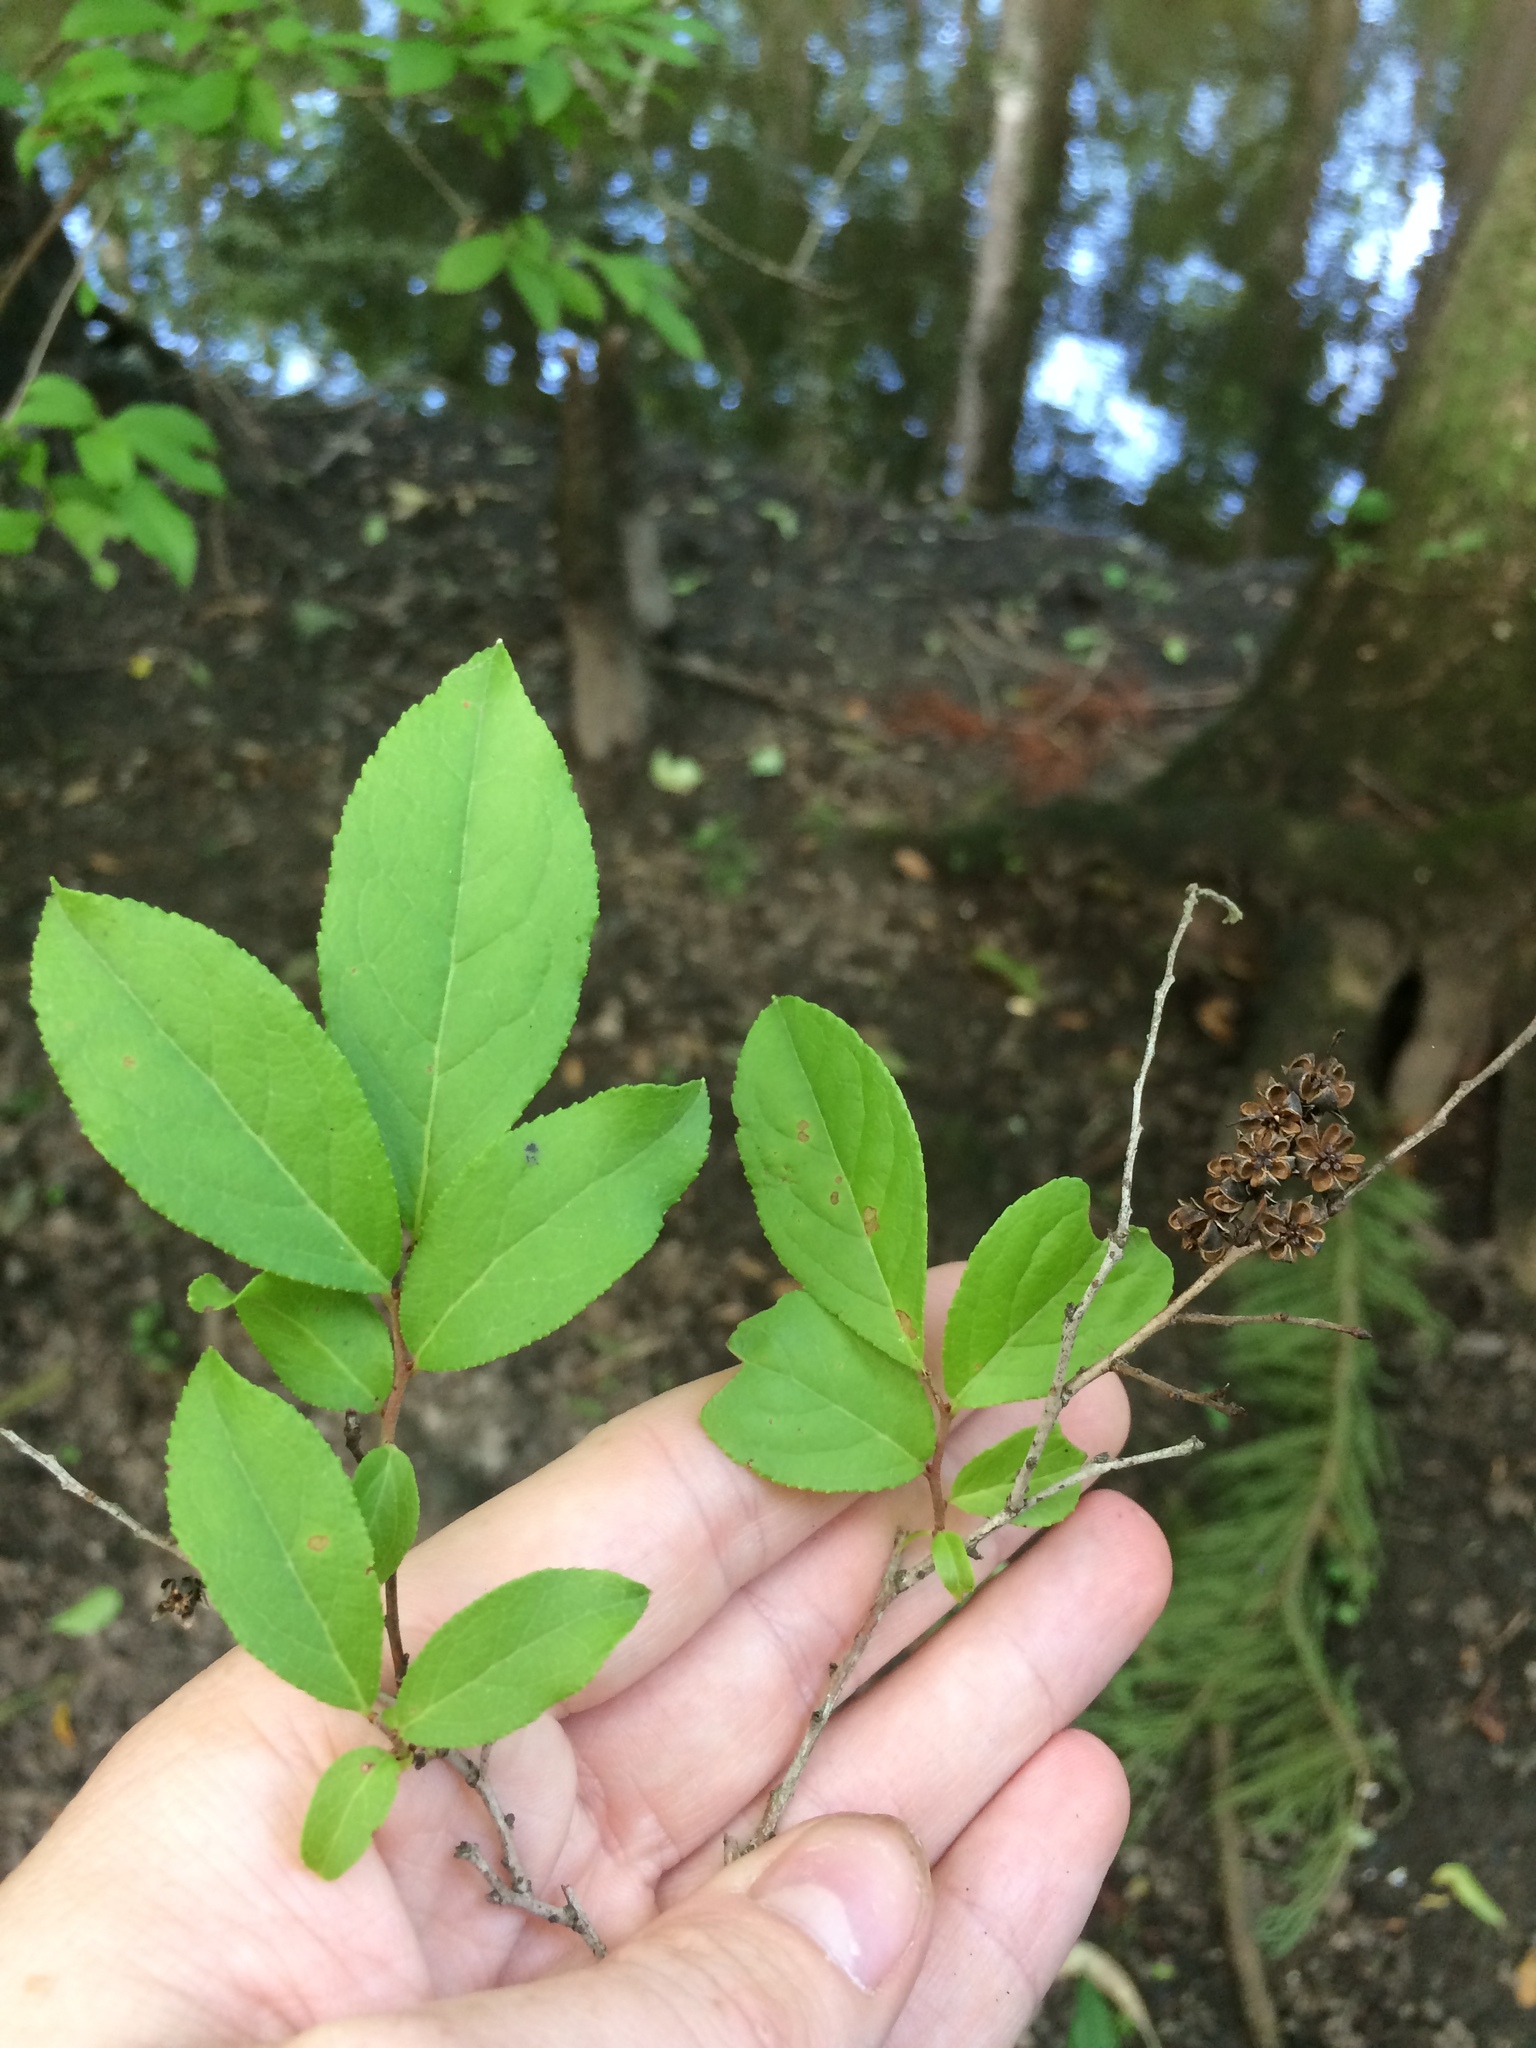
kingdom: Plantae
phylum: Tracheophyta
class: Magnoliopsida
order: Ericales
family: Ericaceae
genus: Eubotrys
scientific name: Eubotrys racemosa
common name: Fetterbush
